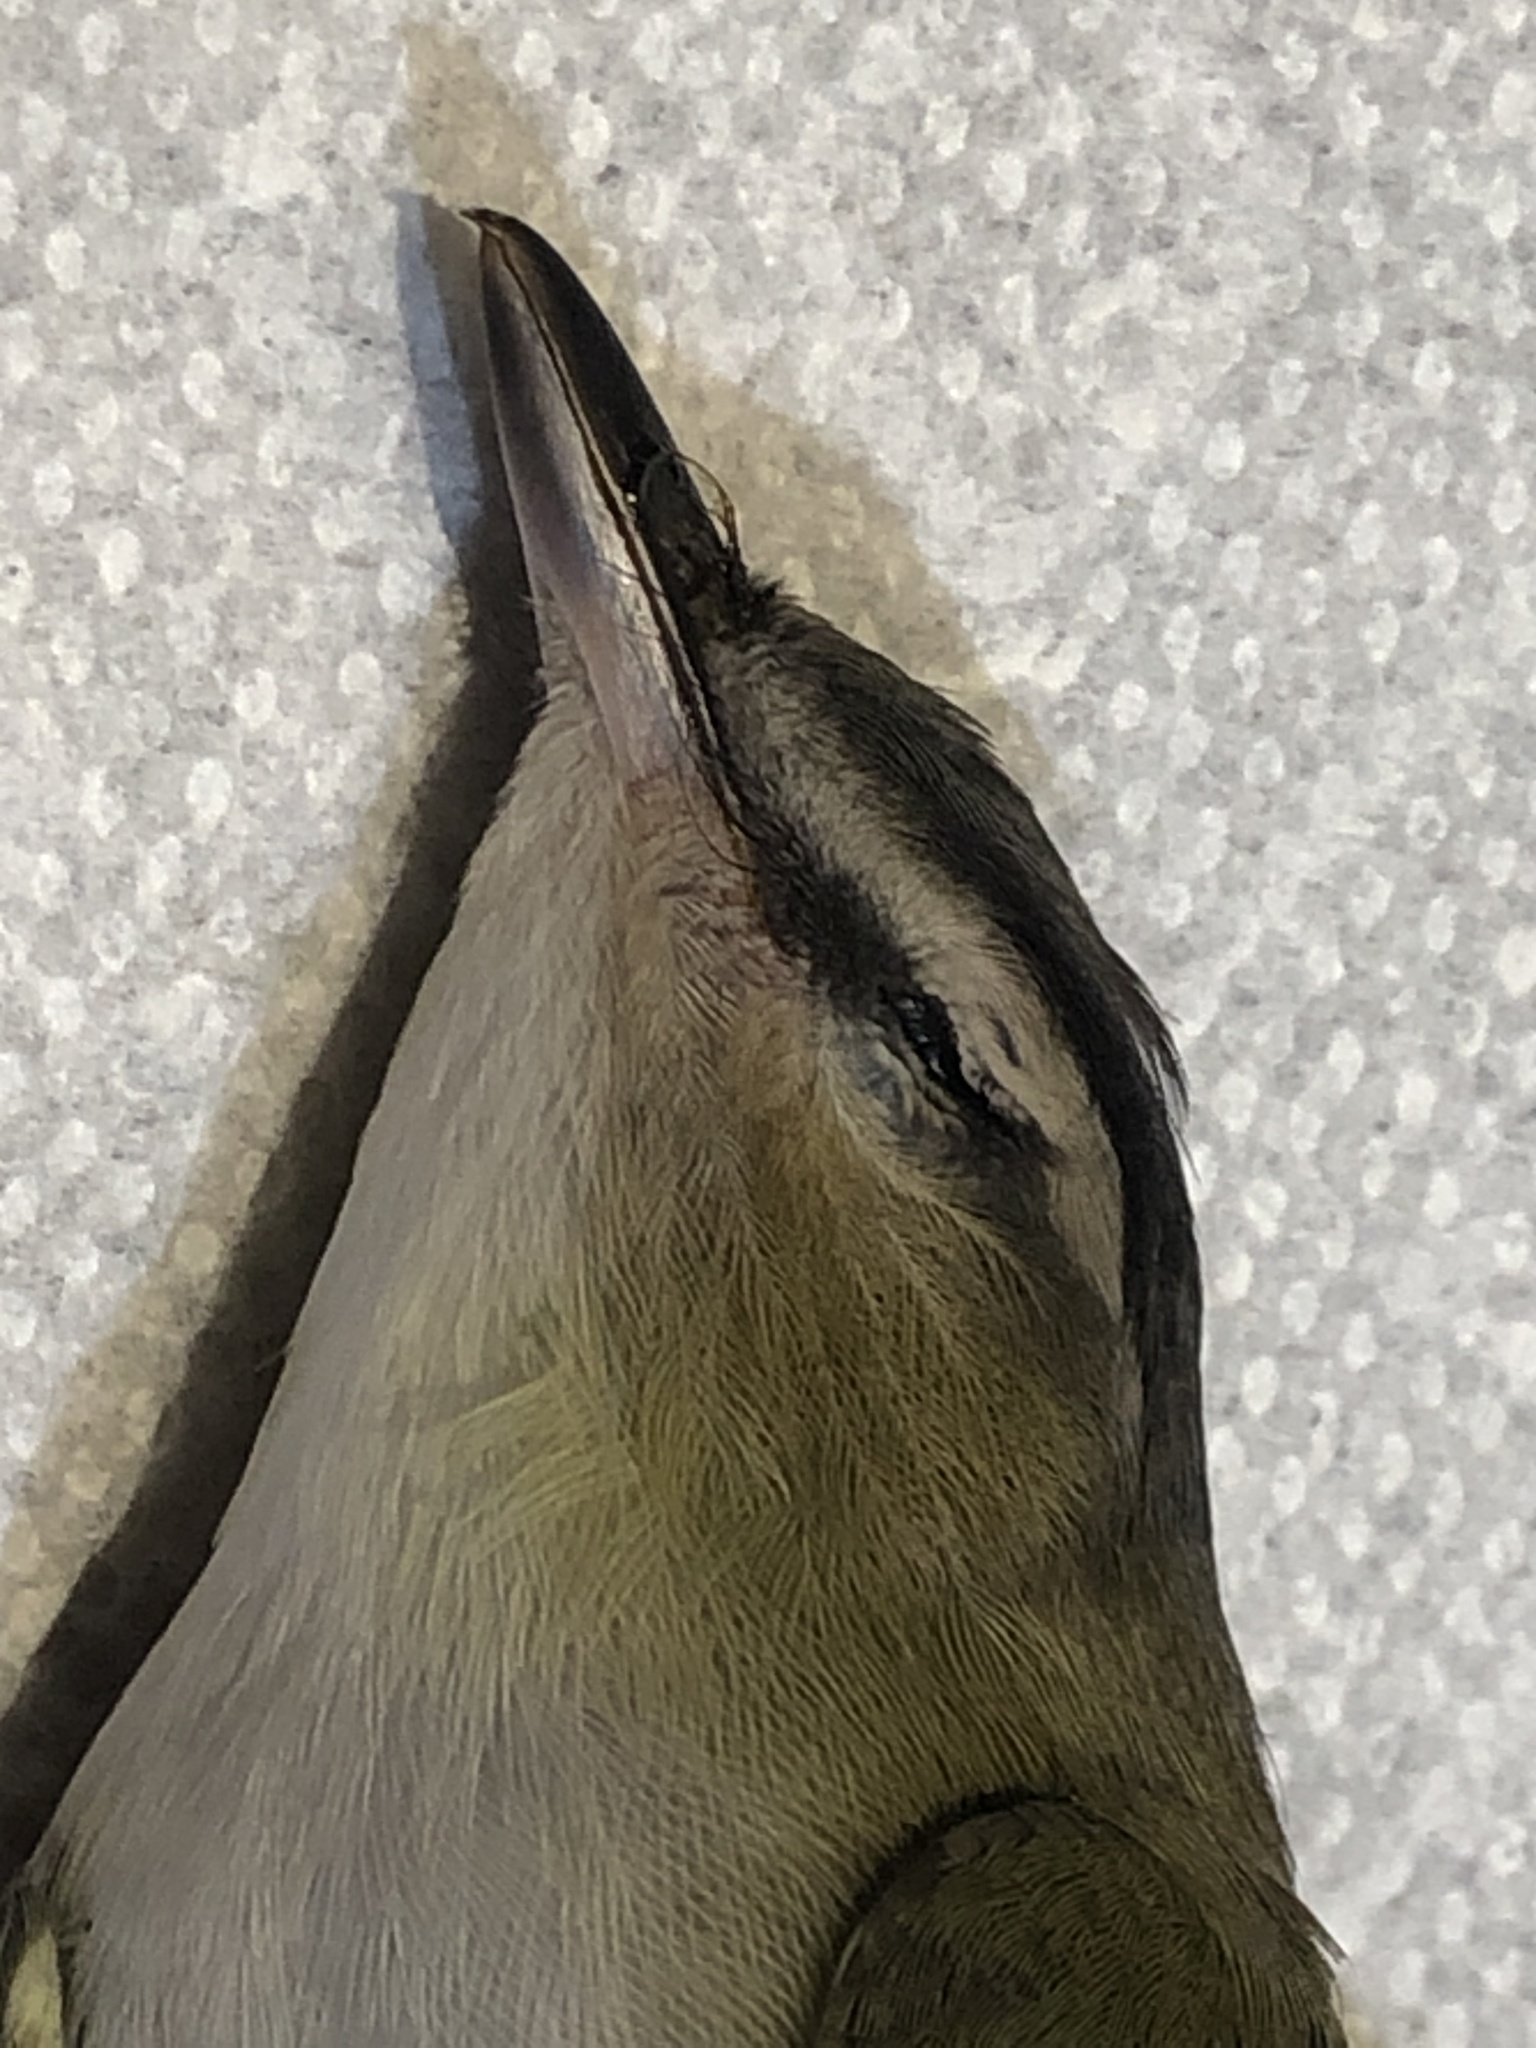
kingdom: Animalia
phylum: Chordata
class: Aves
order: Passeriformes
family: Vireonidae
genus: Vireo
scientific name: Vireo olivaceus
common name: Red-eyed vireo
